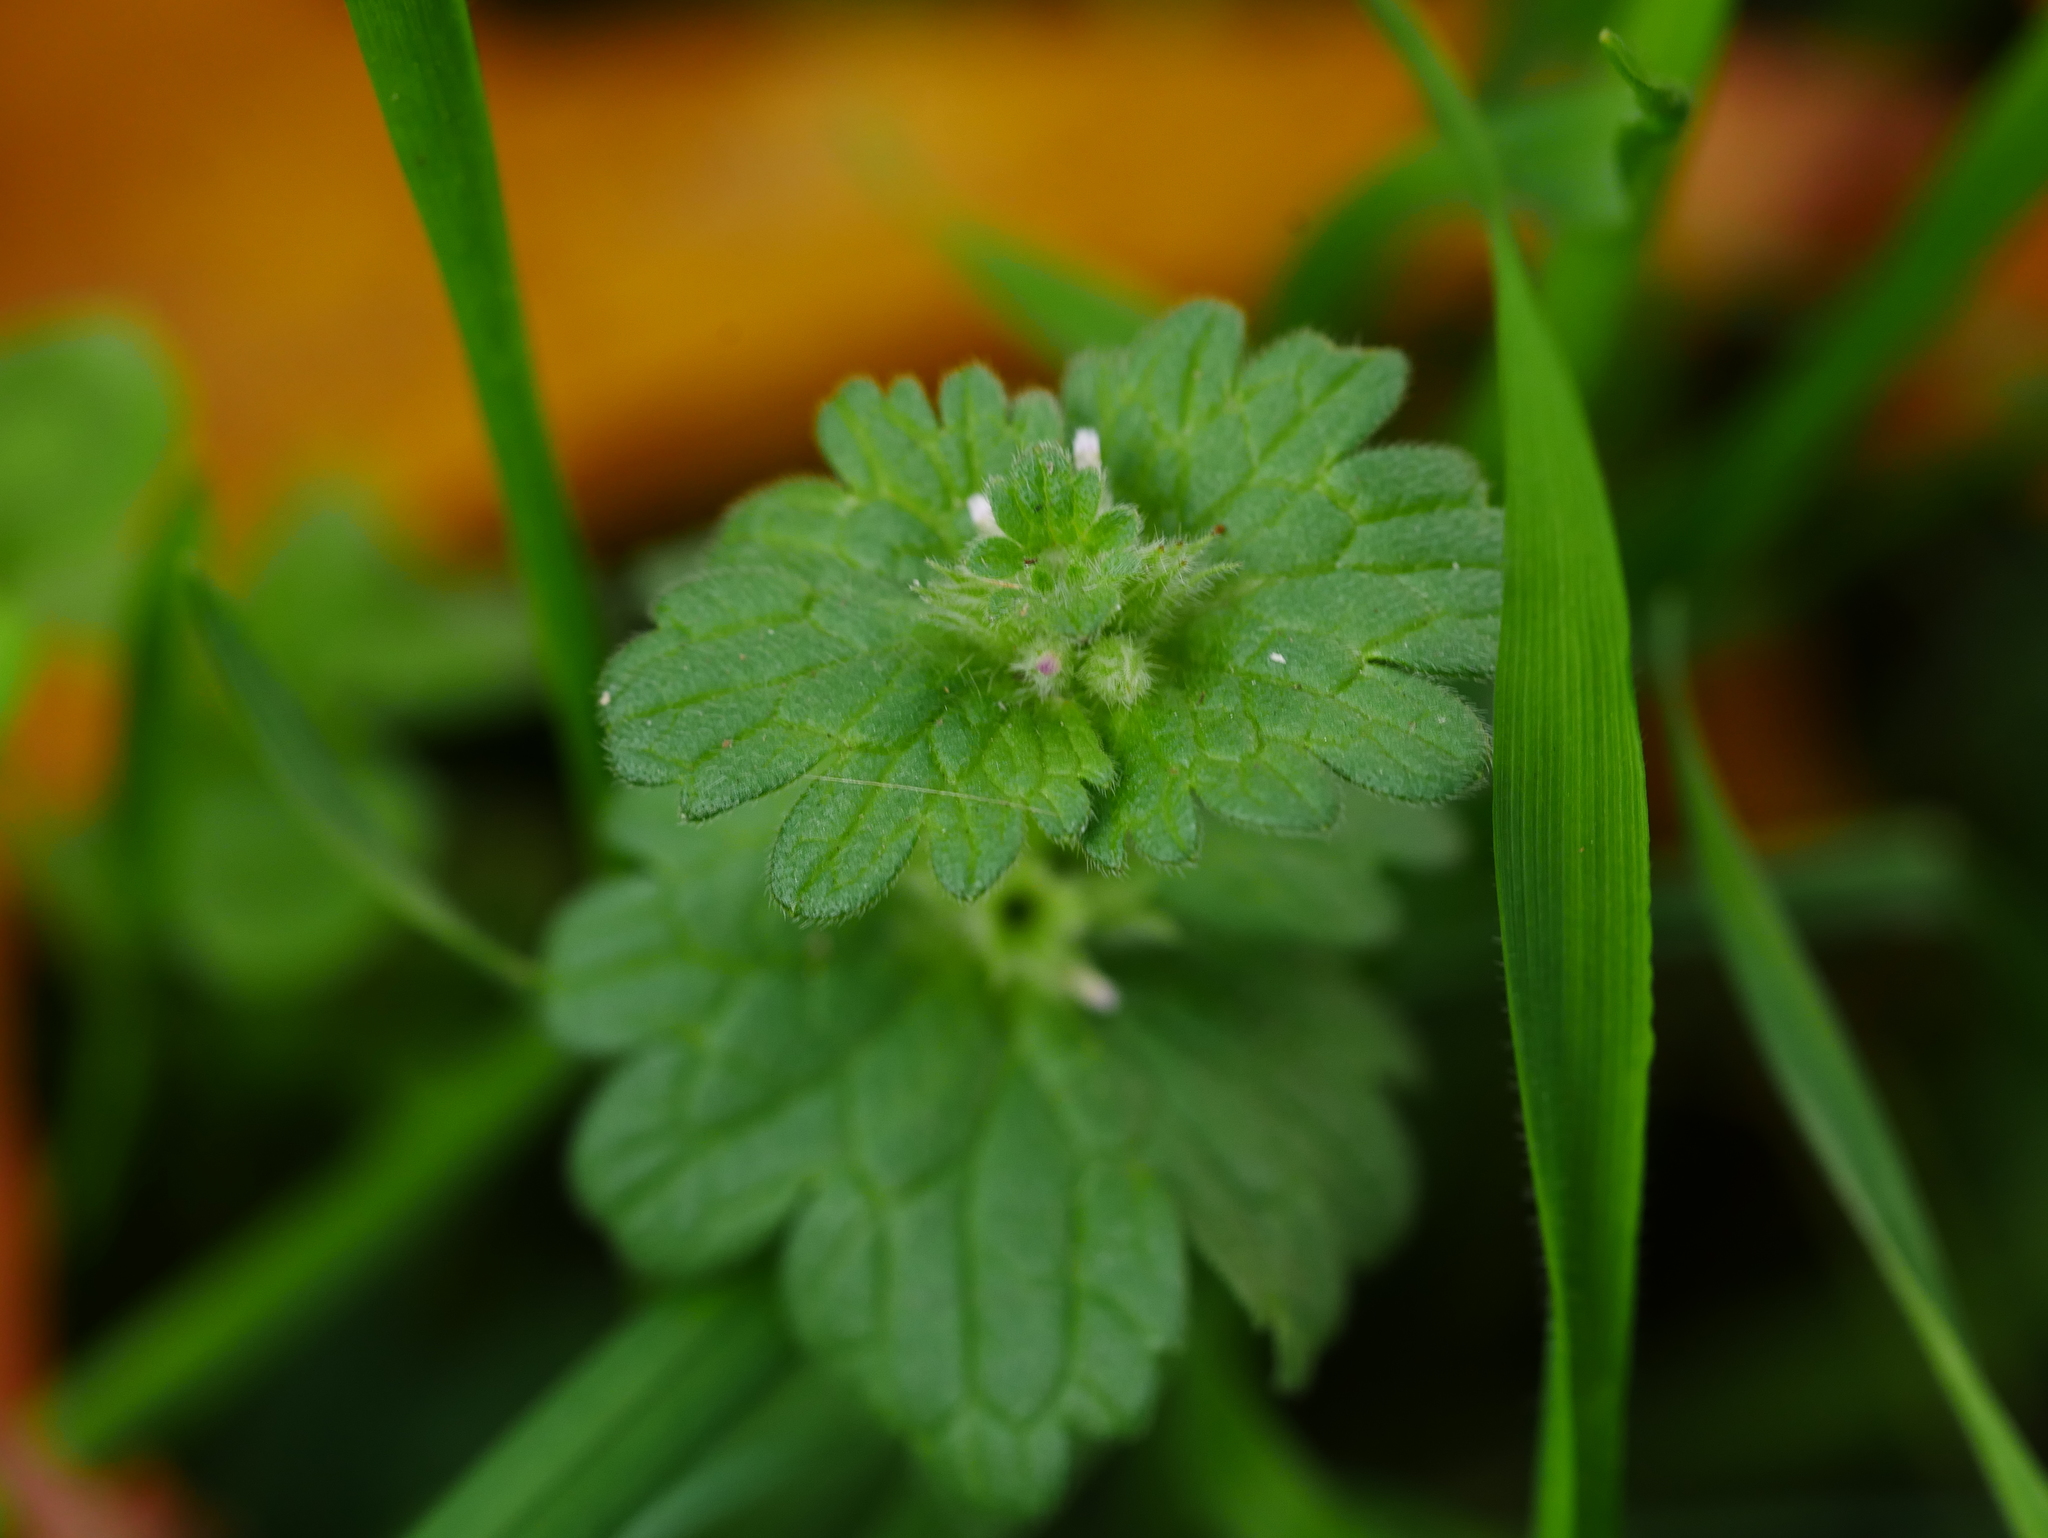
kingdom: Plantae
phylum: Tracheophyta
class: Magnoliopsida
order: Lamiales
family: Lamiaceae
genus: Lamium
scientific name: Lamium amplexicaule
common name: Henbit dead-nettle
